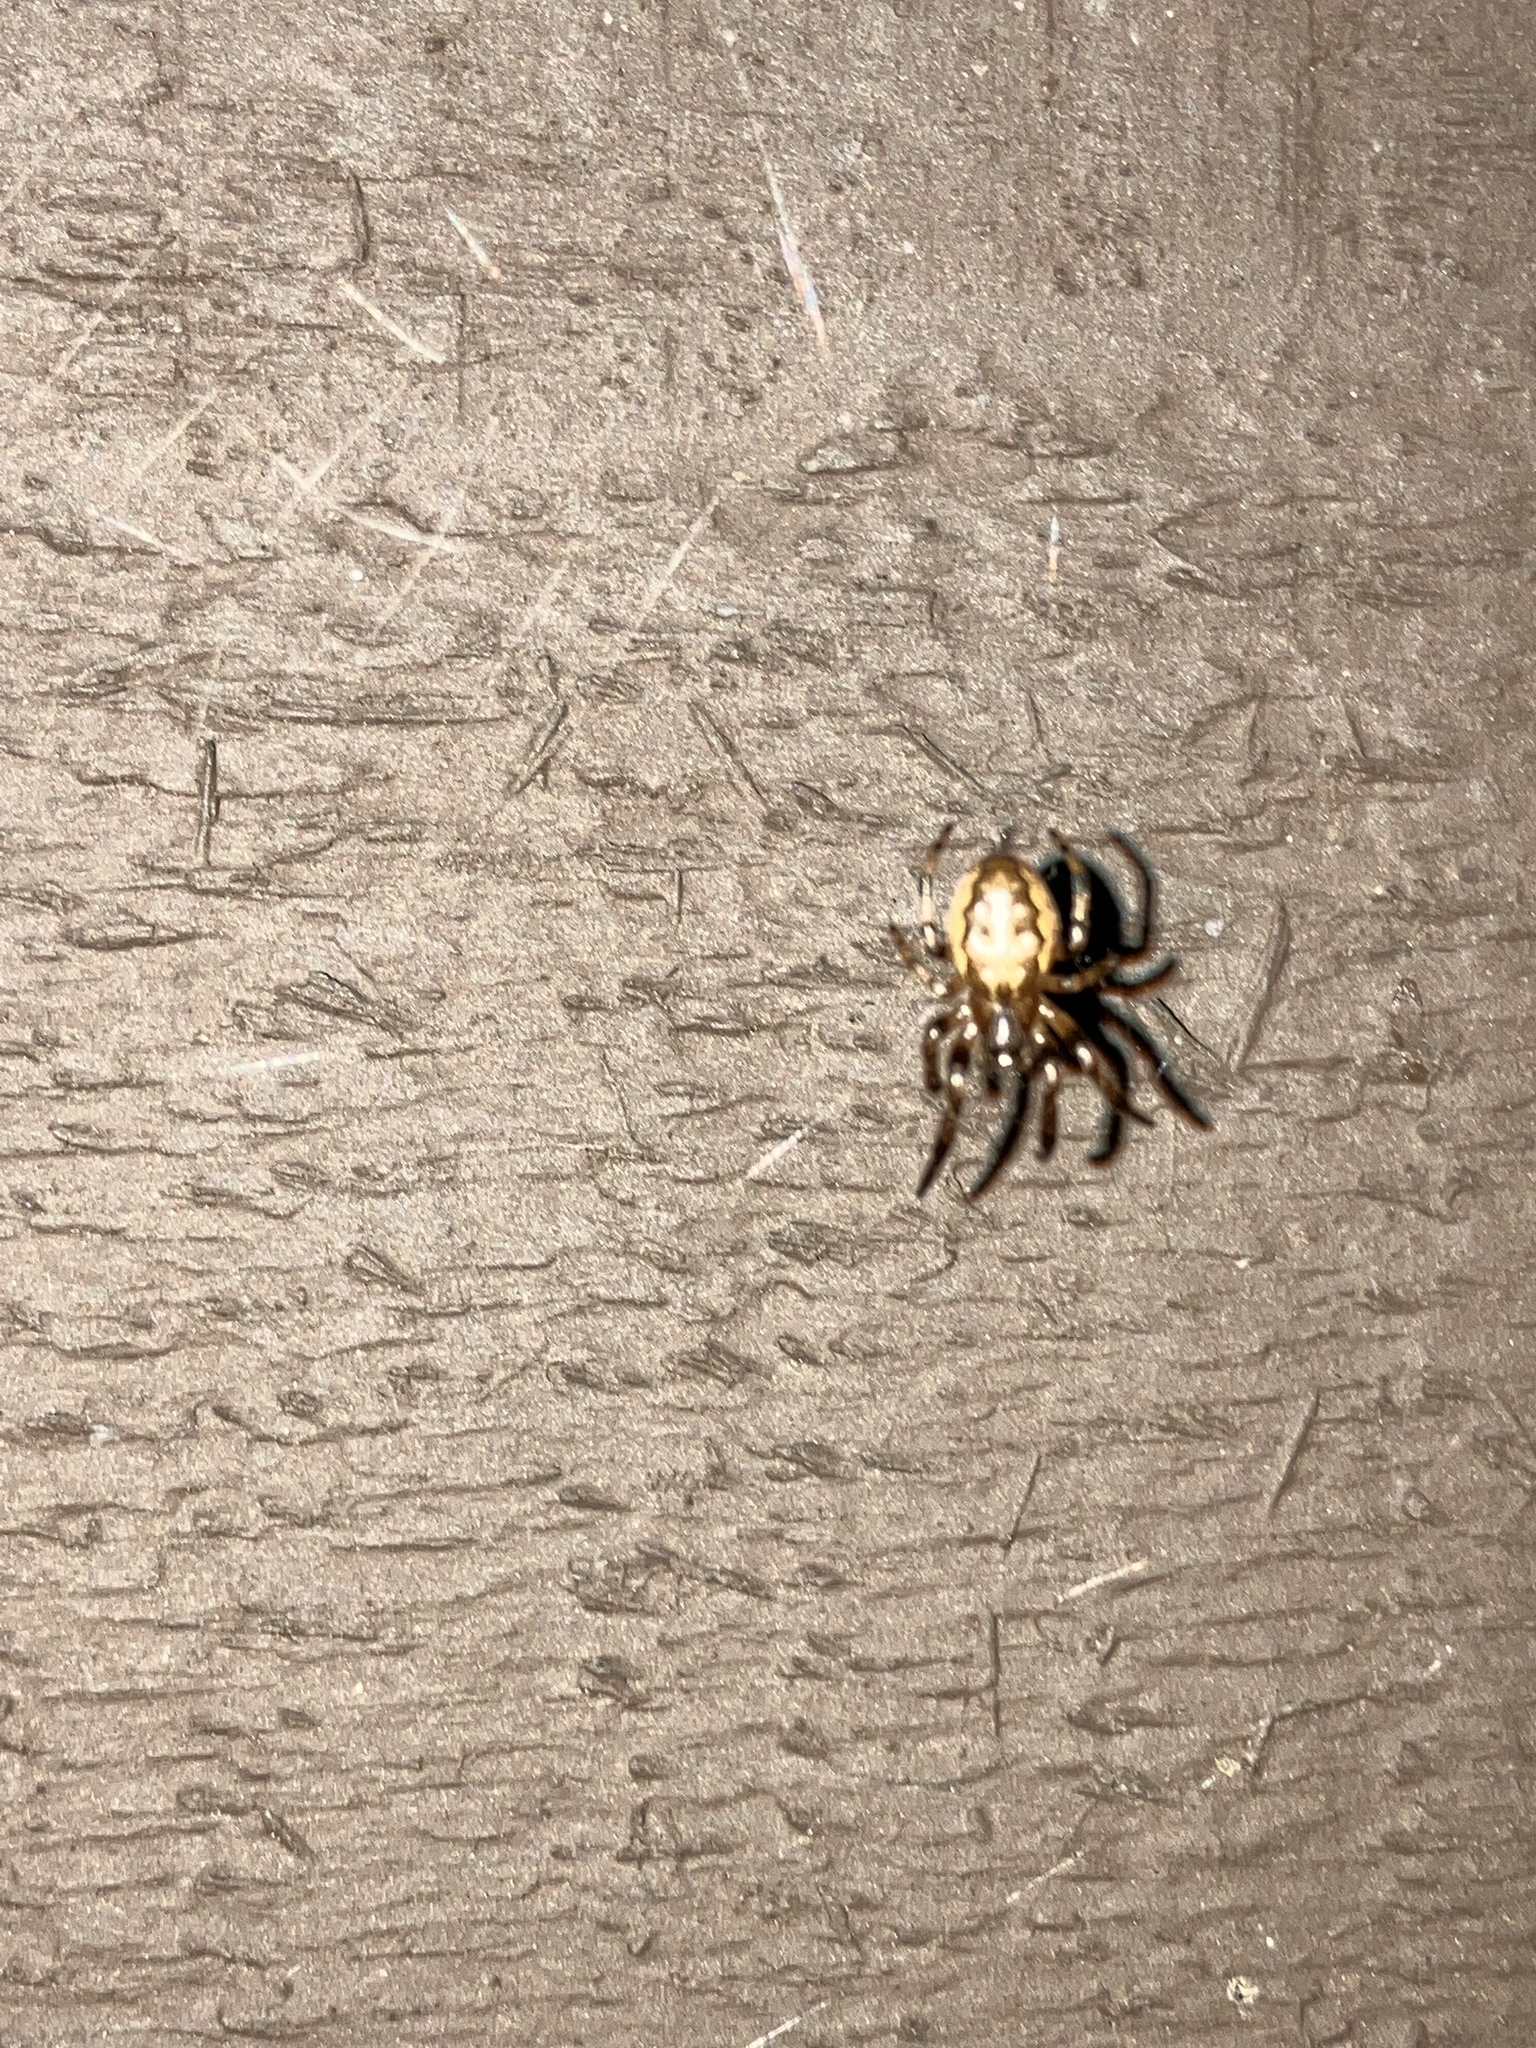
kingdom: Animalia
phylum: Arthropoda
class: Arachnida
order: Araneae
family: Araneidae
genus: Larinioides
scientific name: Larinioides cornutus
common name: Furrow orbweaver
